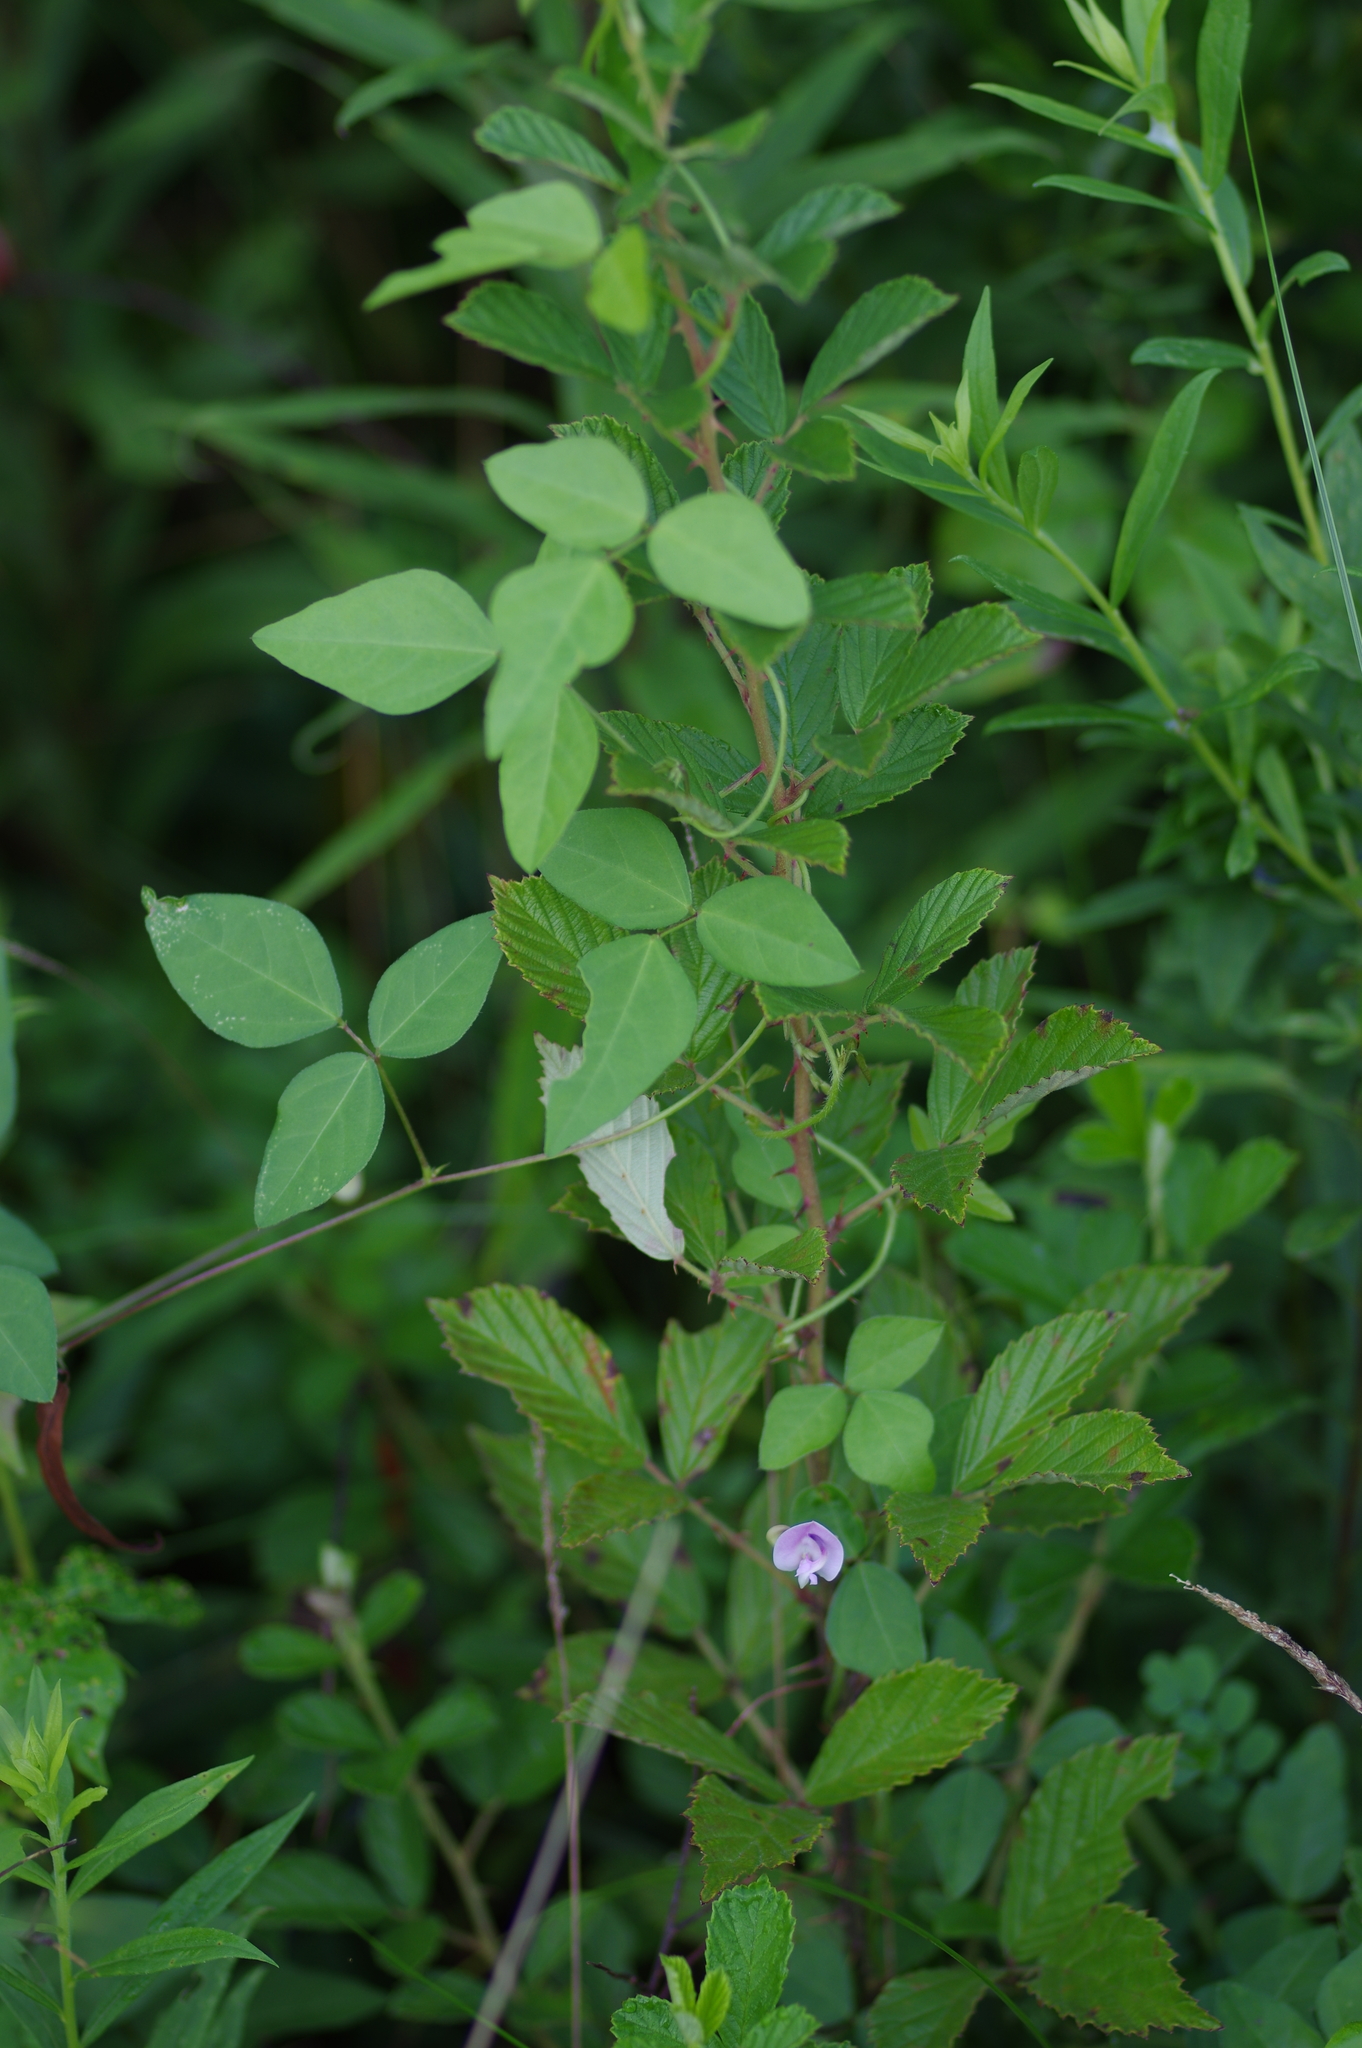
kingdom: Plantae
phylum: Tracheophyta
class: Magnoliopsida
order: Fabales
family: Fabaceae
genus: Strophostyles
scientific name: Strophostyles helvola
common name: Trailing wild bean
